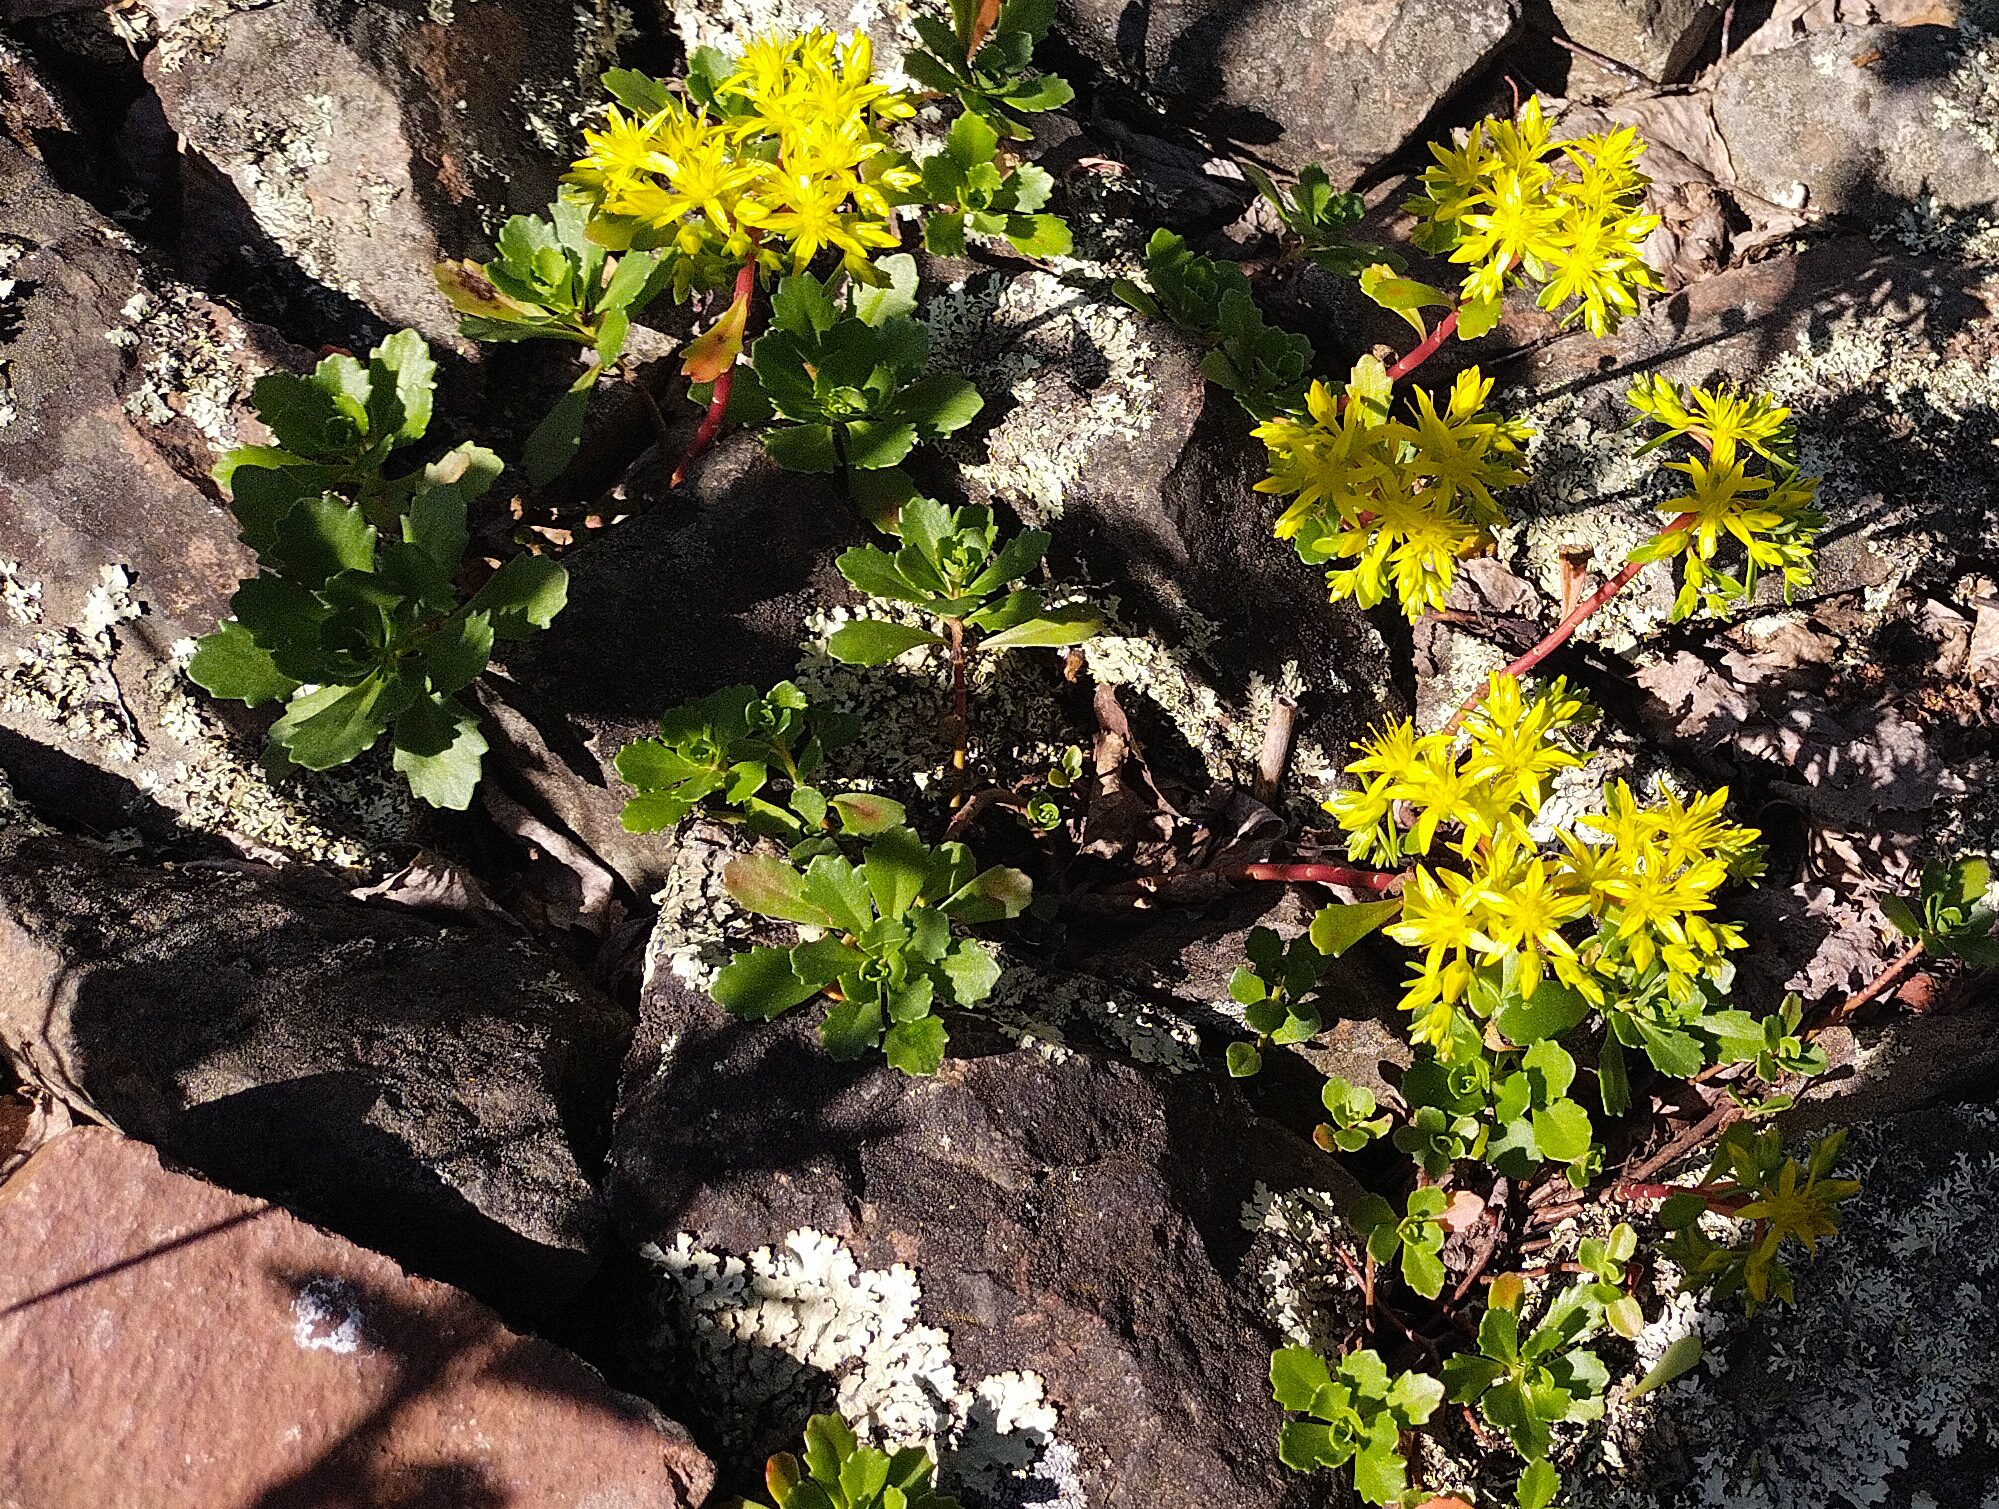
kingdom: Plantae
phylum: Tracheophyta
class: Magnoliopsida
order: Saxifragales
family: Crassulaceae
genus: Phedimus
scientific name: Phedimus hybridus
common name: Hybrid stonecrop
